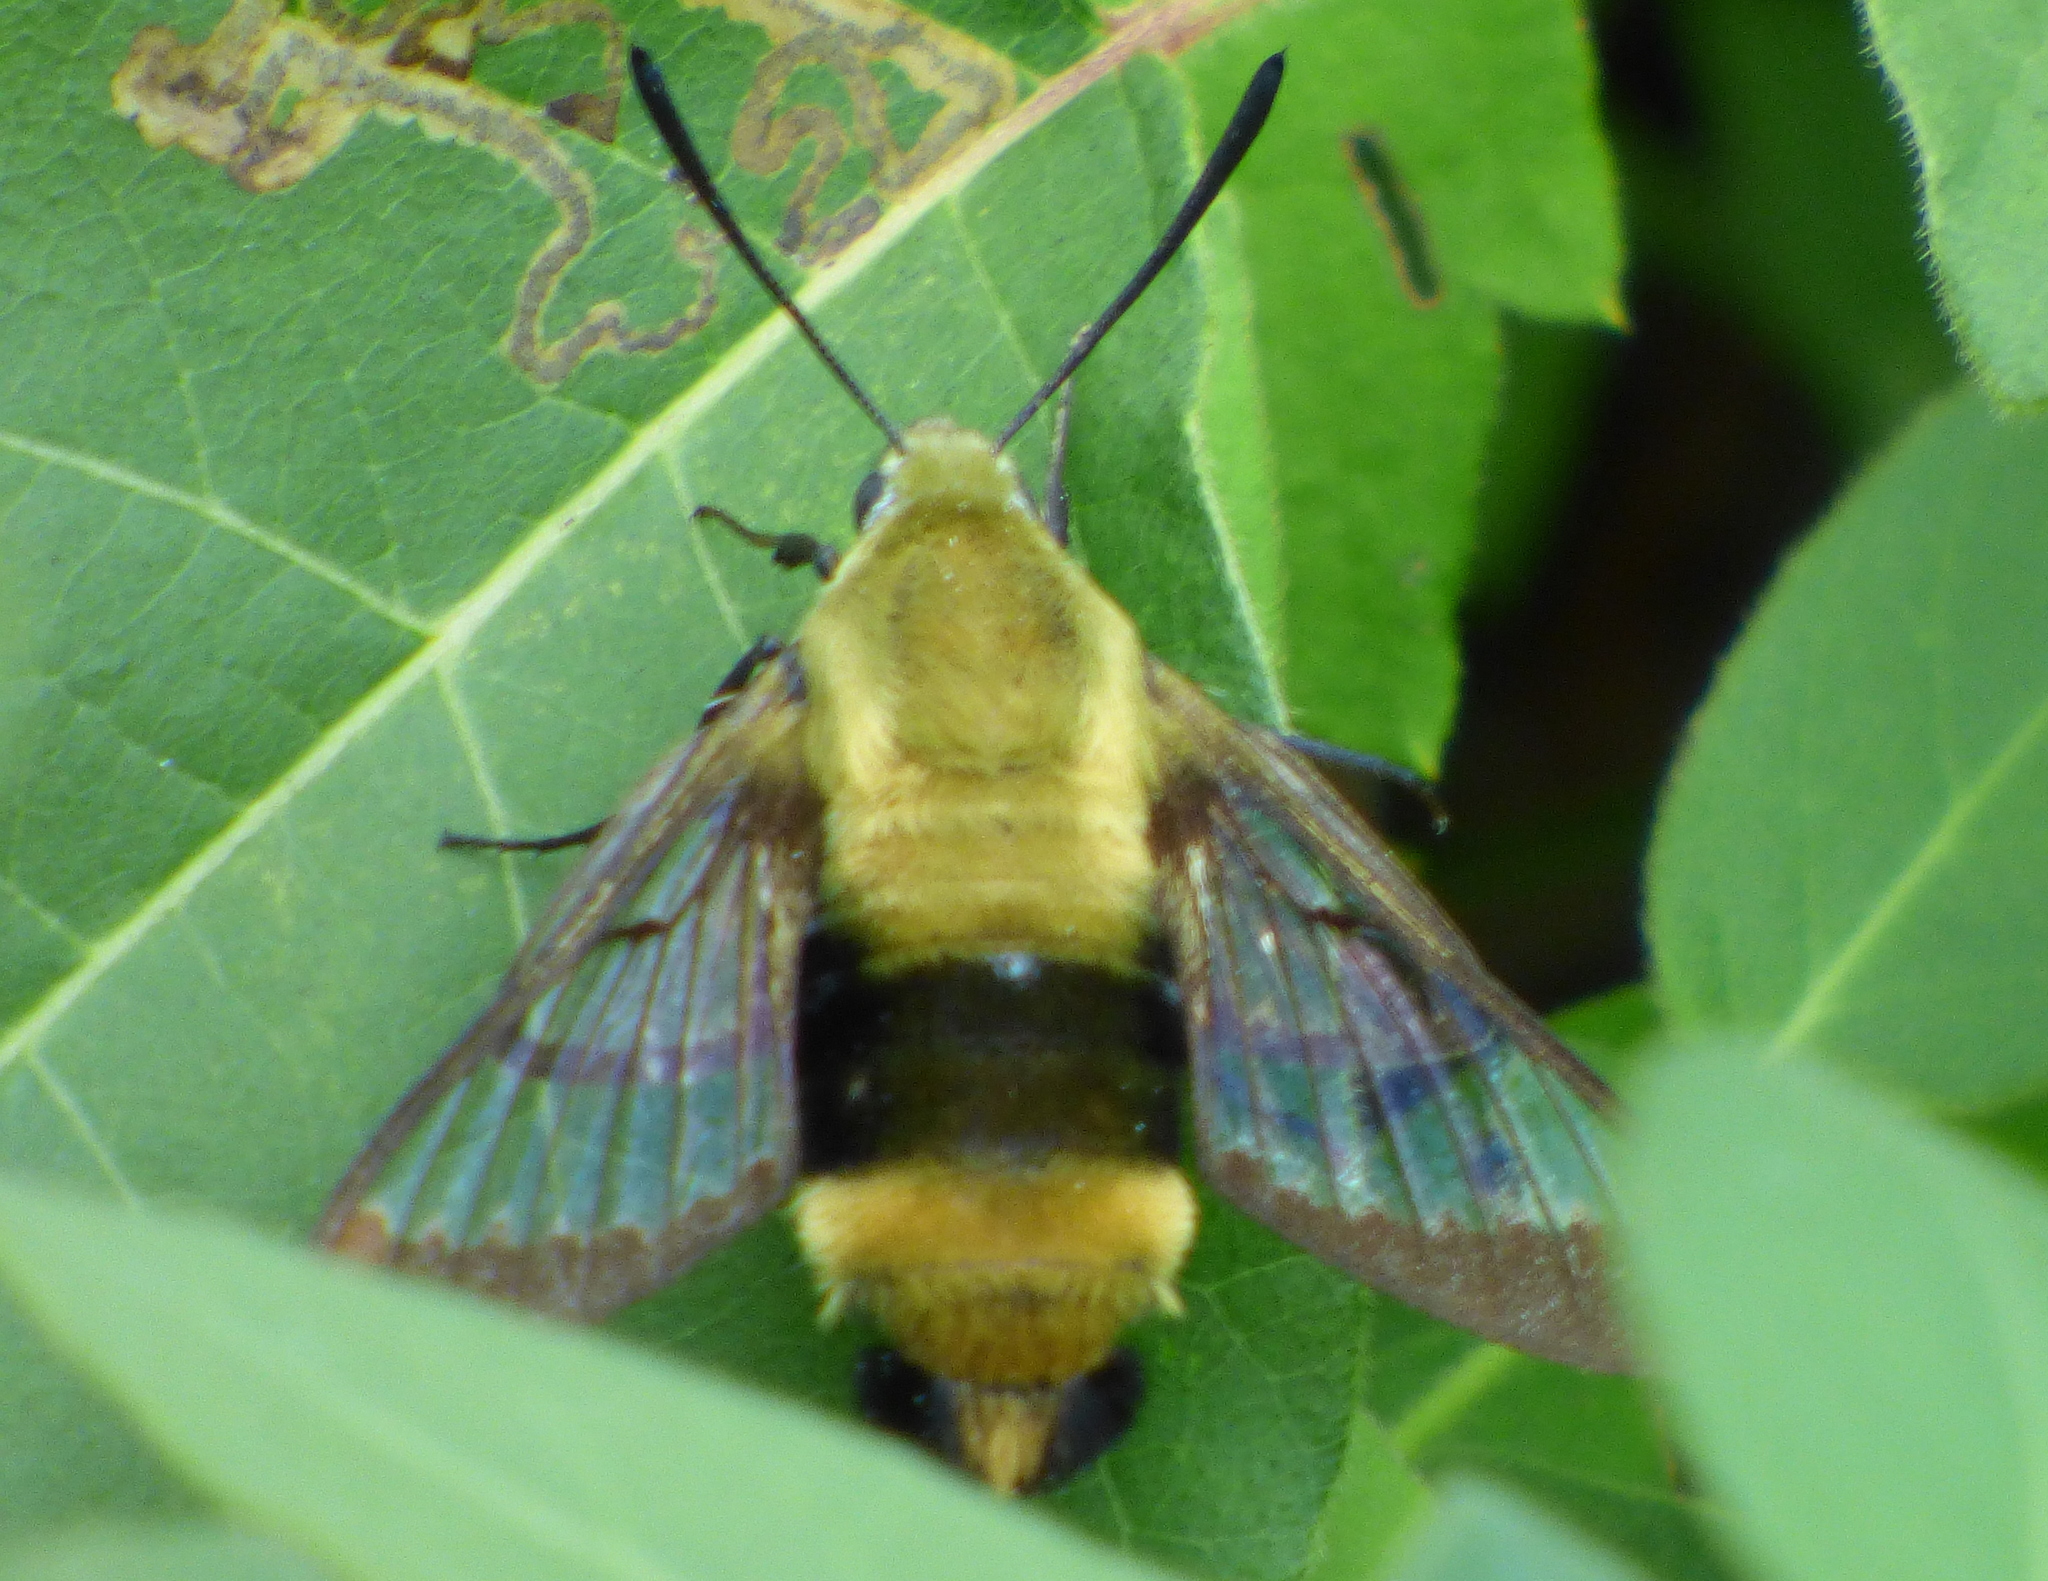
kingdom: Animalia
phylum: Arthropoda
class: Insecta
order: Lepidoptera
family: Sphingidae
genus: Hemaris
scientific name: Hemaris diffinis
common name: Bumblebee moth
